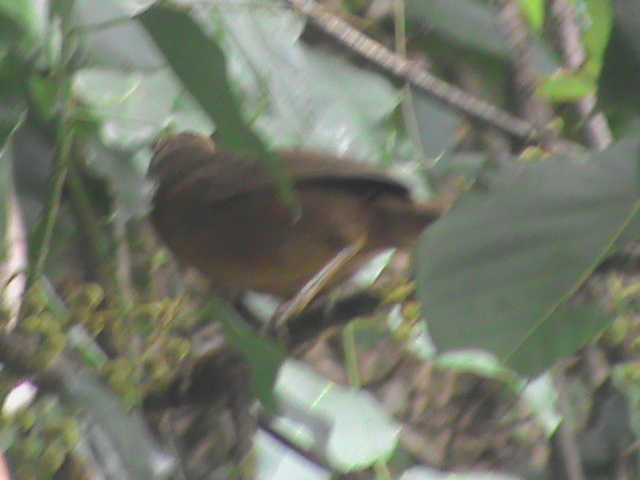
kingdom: Animalia
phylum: Chordata
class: Aves
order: Passeriformes
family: Leiothrichidae
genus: Turdoides
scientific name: Turdoides subrufa
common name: Rufous babbler
